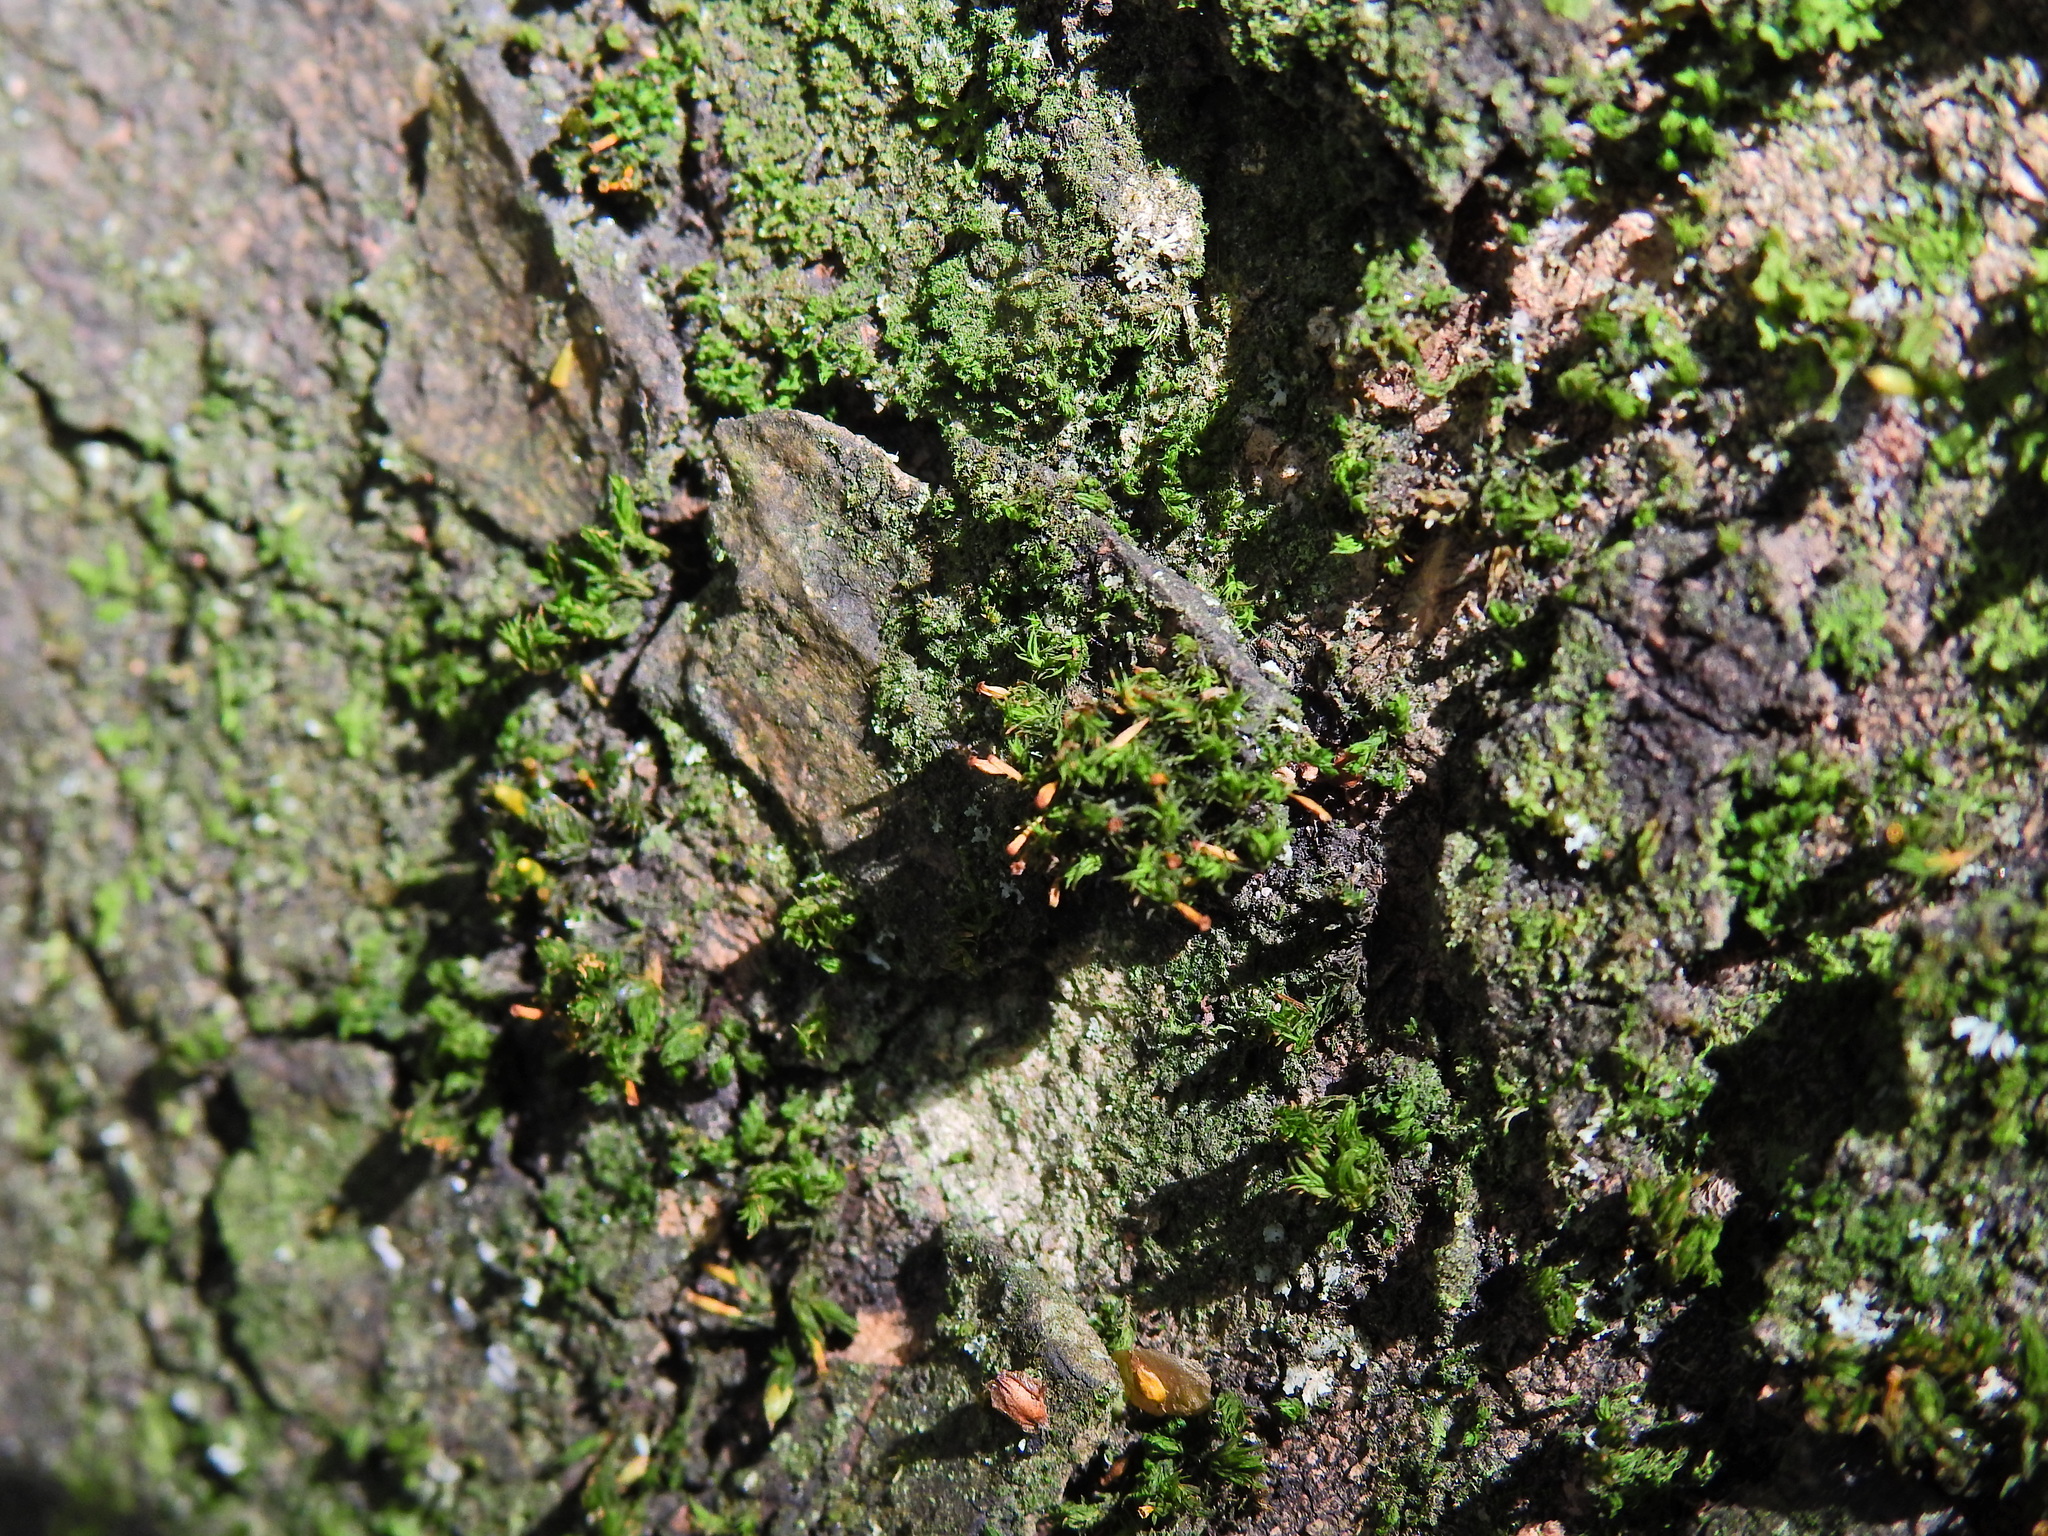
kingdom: Plantae
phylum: Bryophyta
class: Bryopsida
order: Orthotrichales
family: Orthotrichaceae
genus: Orthotrichum
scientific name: Orthotrichum pulchellum
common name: Elegant bristle-moss
